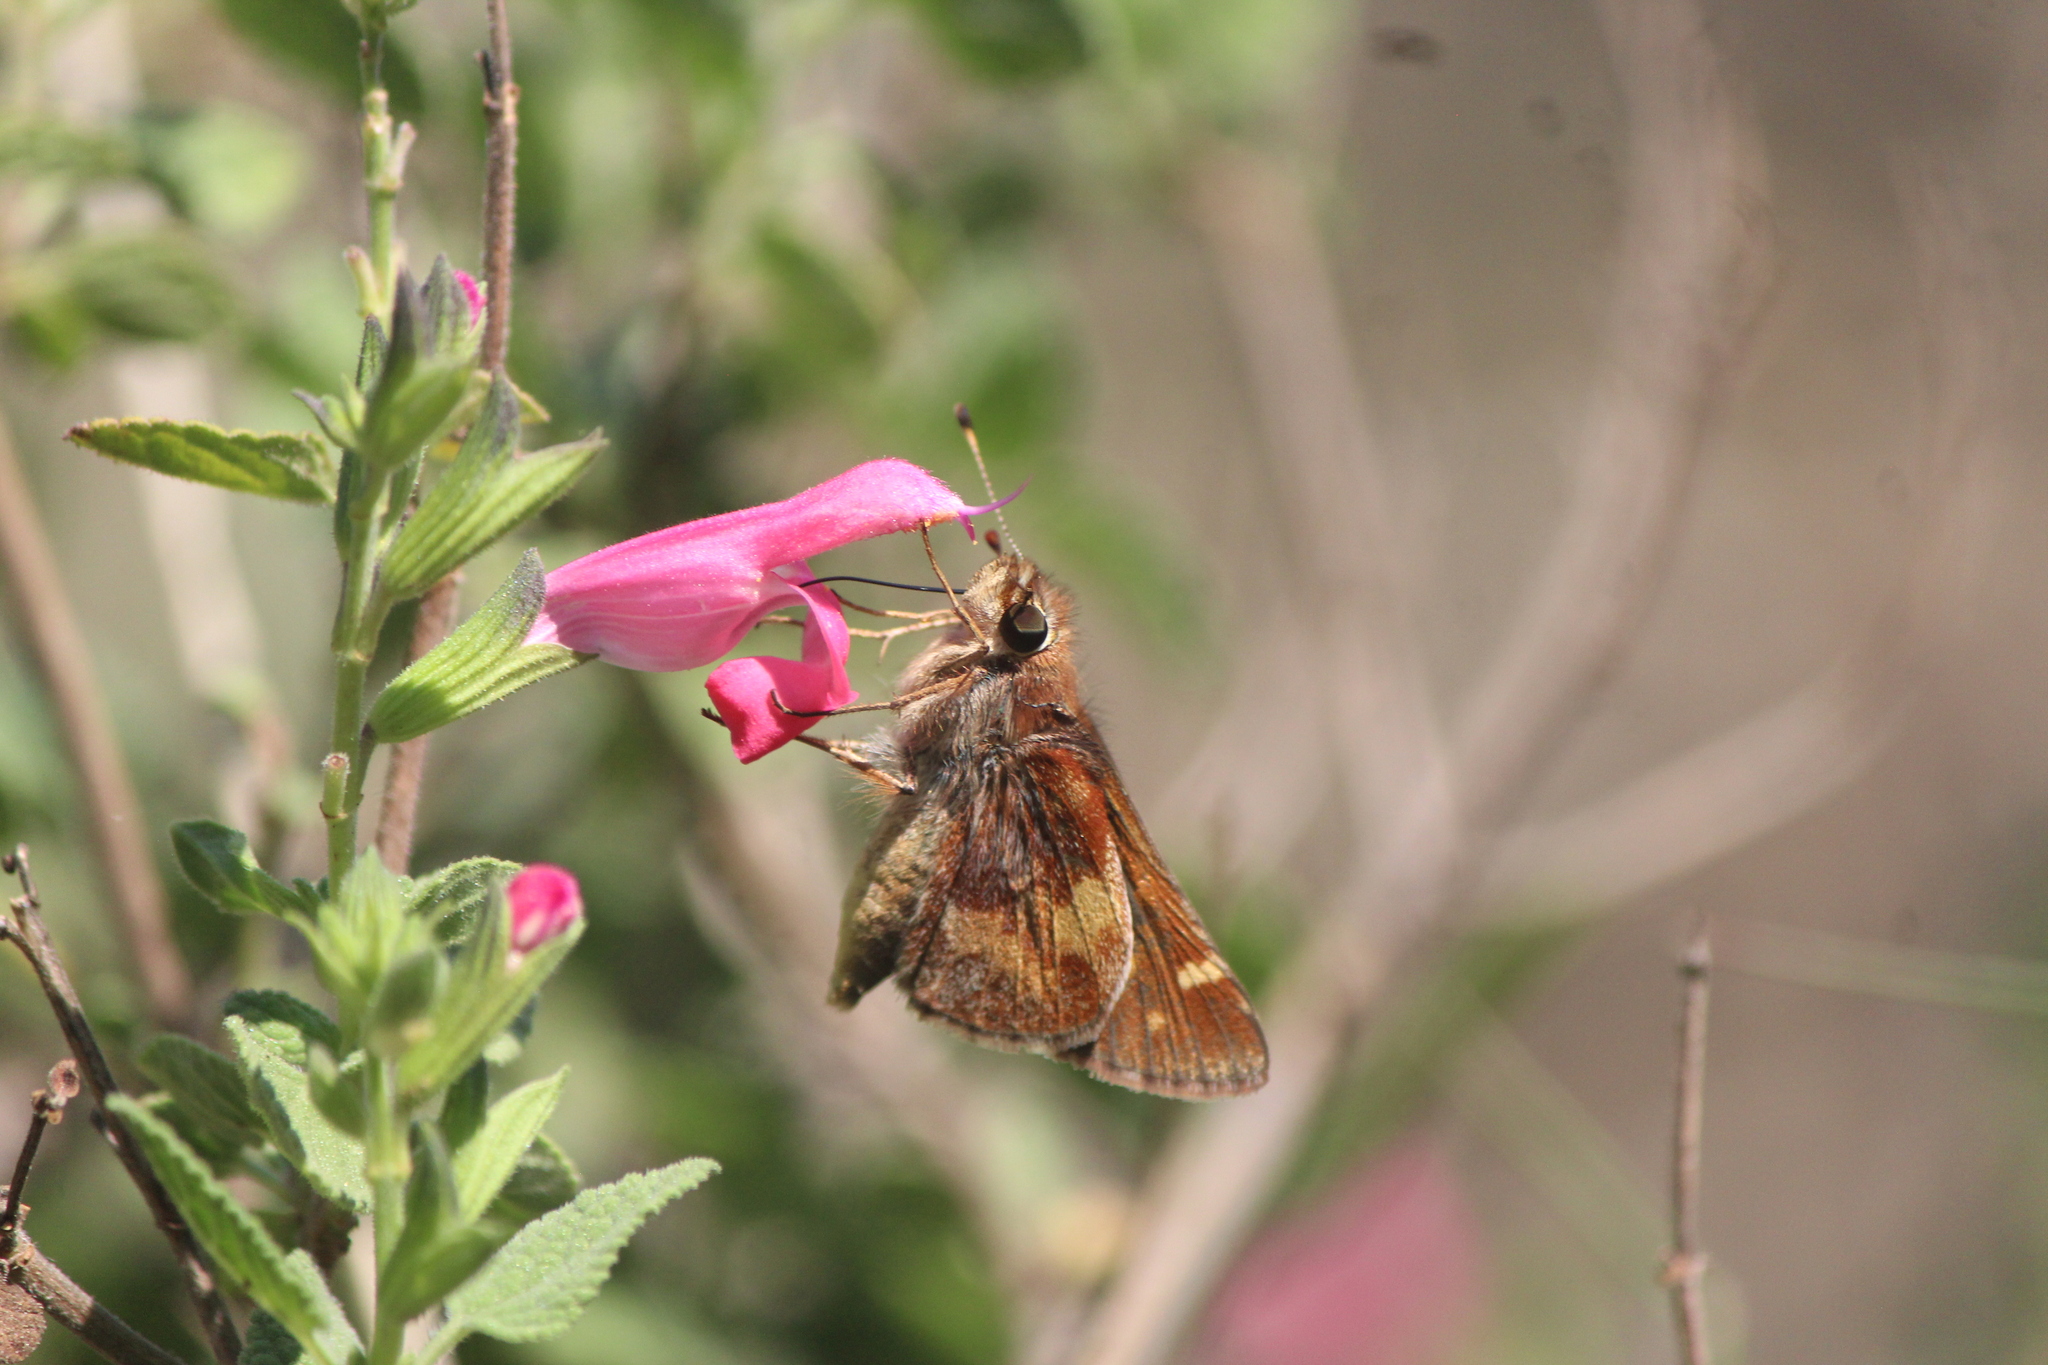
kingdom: Animalia
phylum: Arthropoda
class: Insecta
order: Lepidoptera
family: Hesperiidae
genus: Lon
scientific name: Lon
